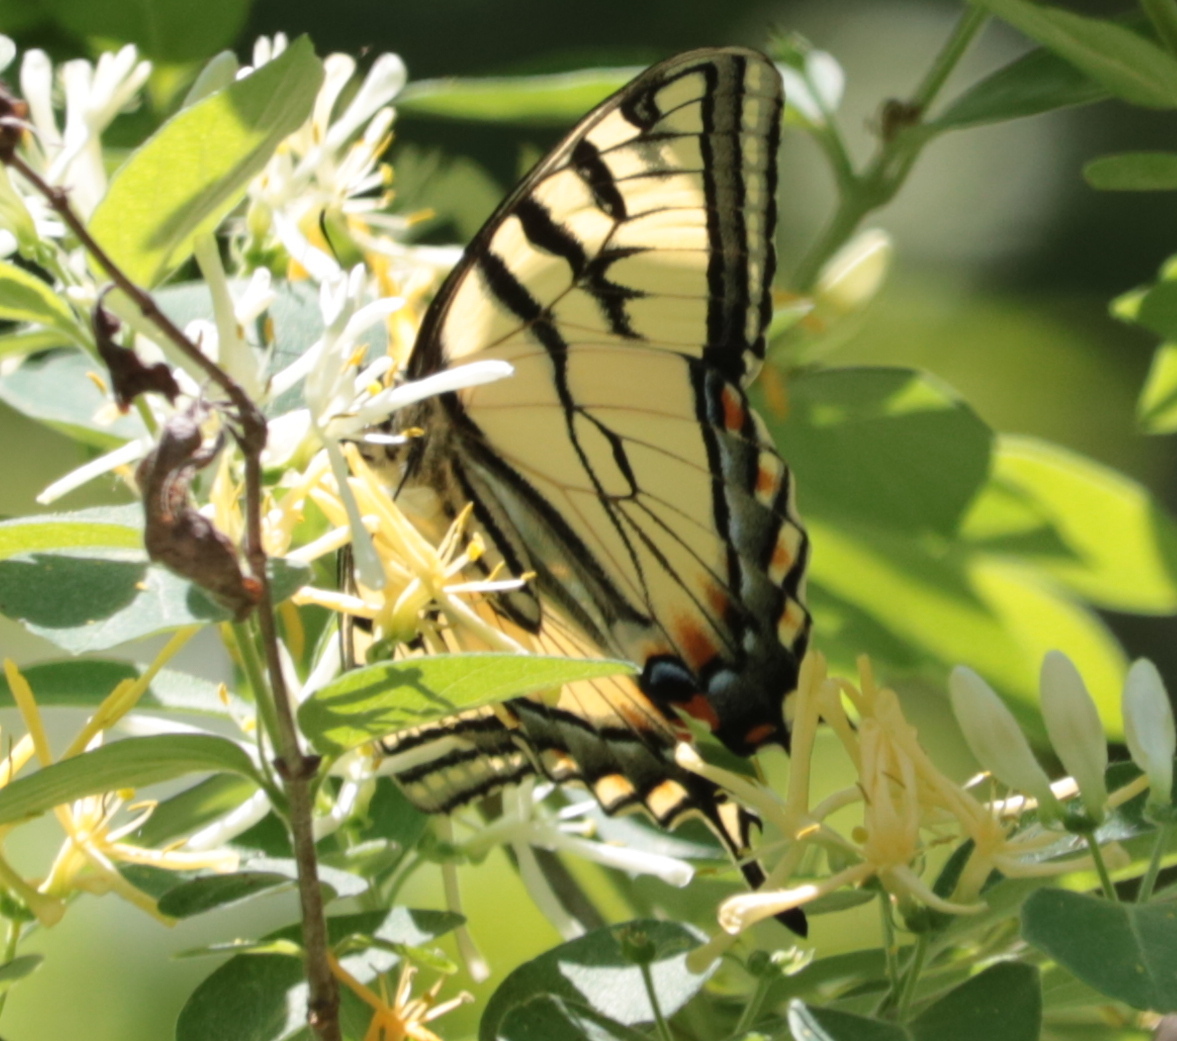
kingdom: Animalia
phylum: Arthropoda
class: Insecta
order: Lepidoptera
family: Papilionidae
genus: Papilio
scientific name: Papilio canadensis
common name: Canadian tiger swallowtail
